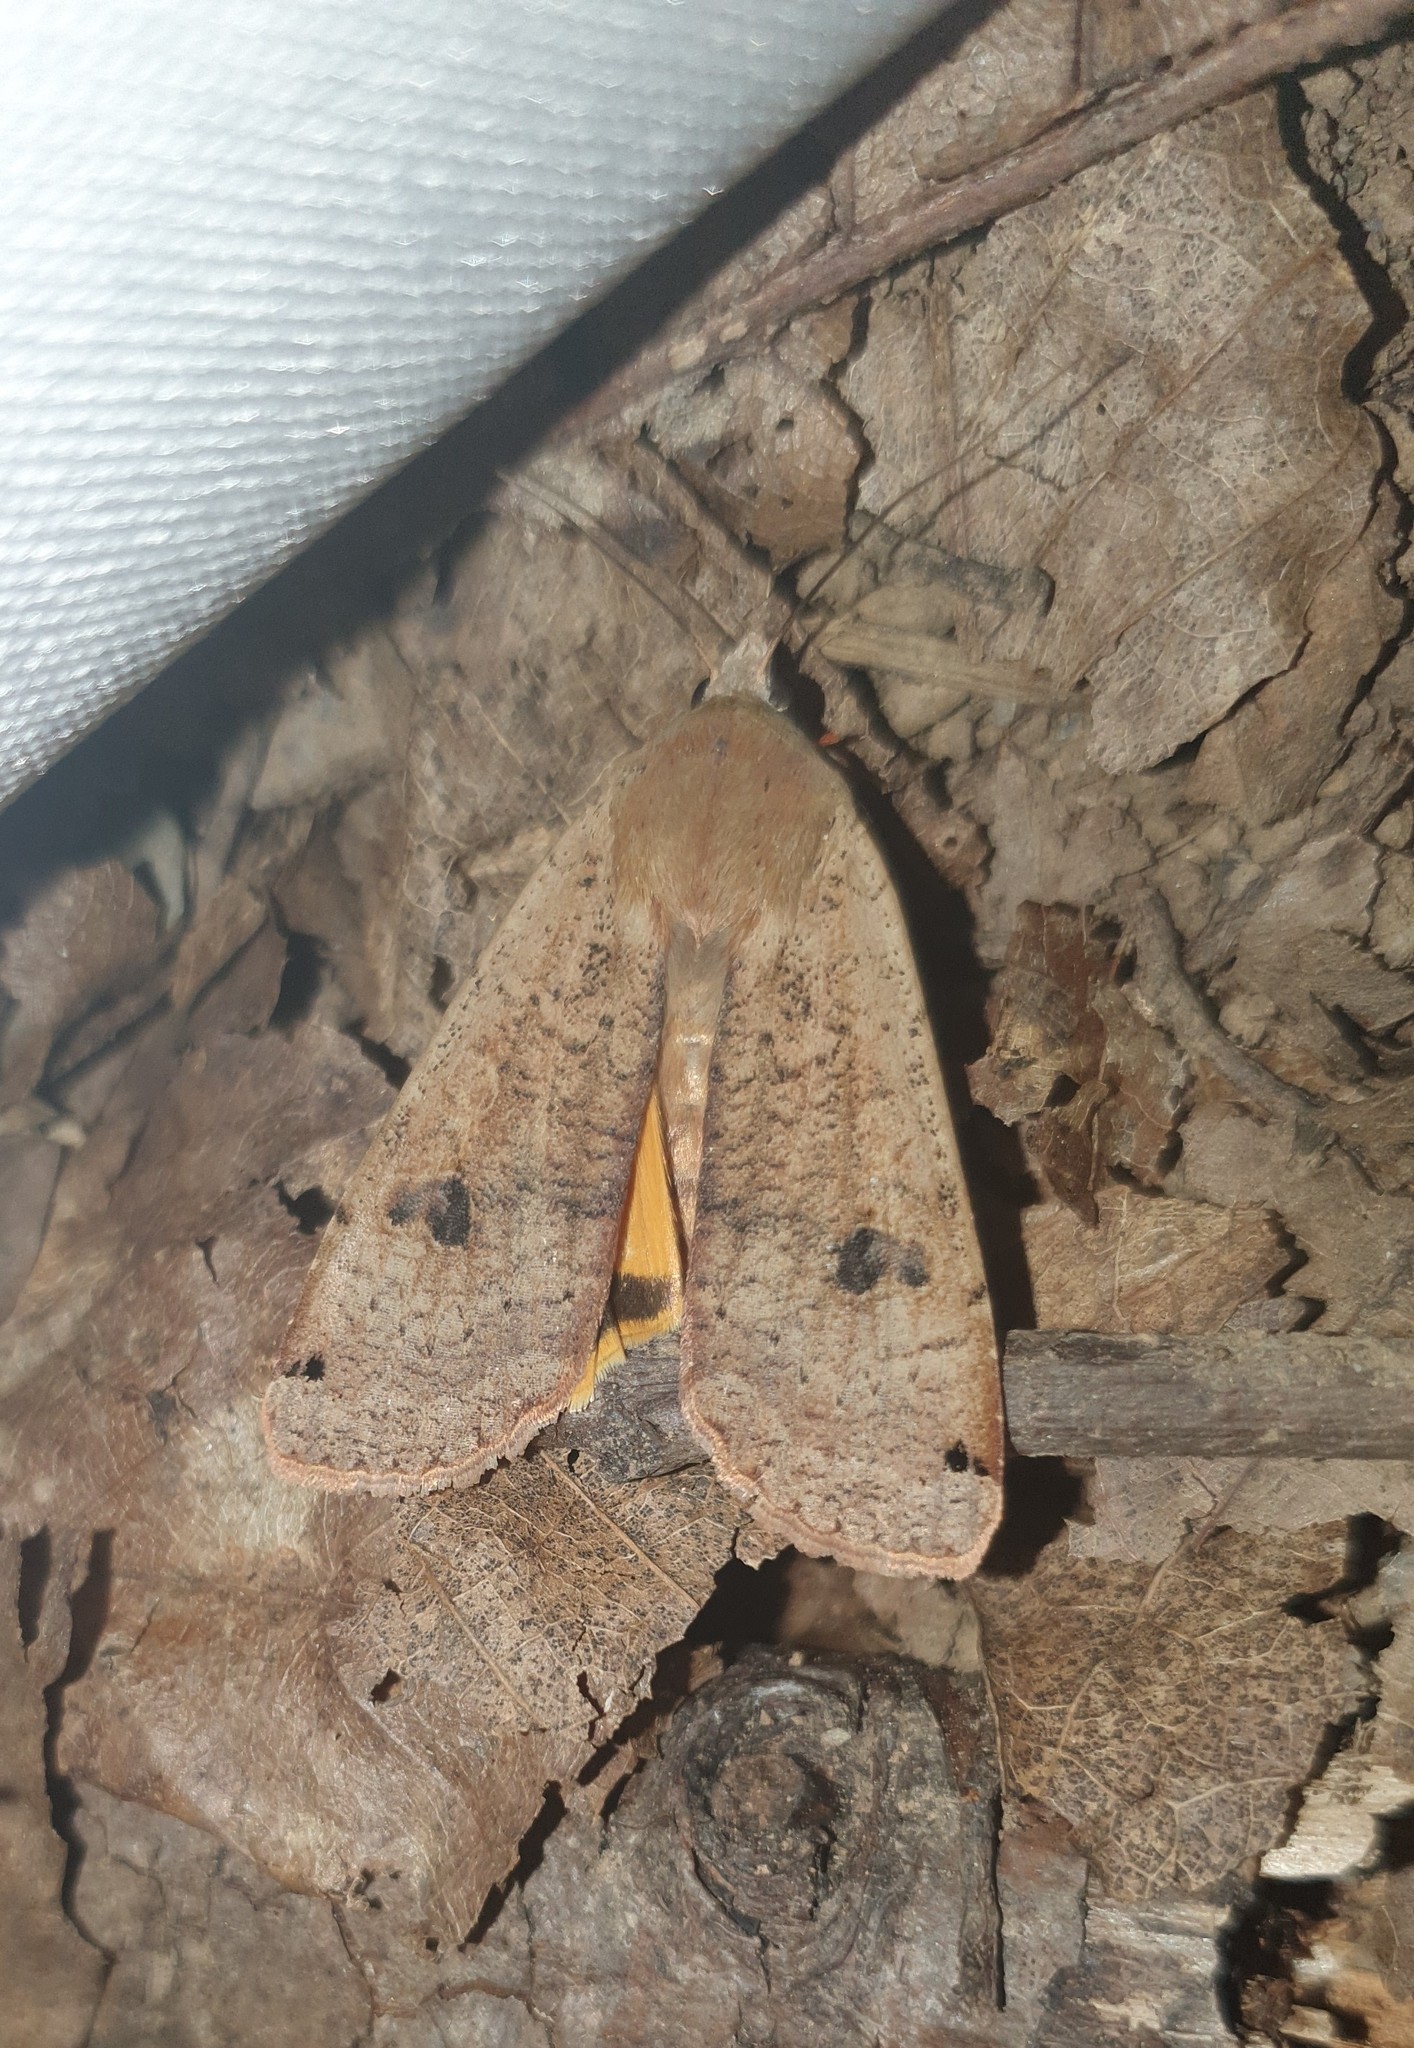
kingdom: Animalia
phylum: Arthropoda
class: Insecta
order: Lepidoptera
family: Noctuidae
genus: Noctua
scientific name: Noctua pronuba
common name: Large yellow underwing
